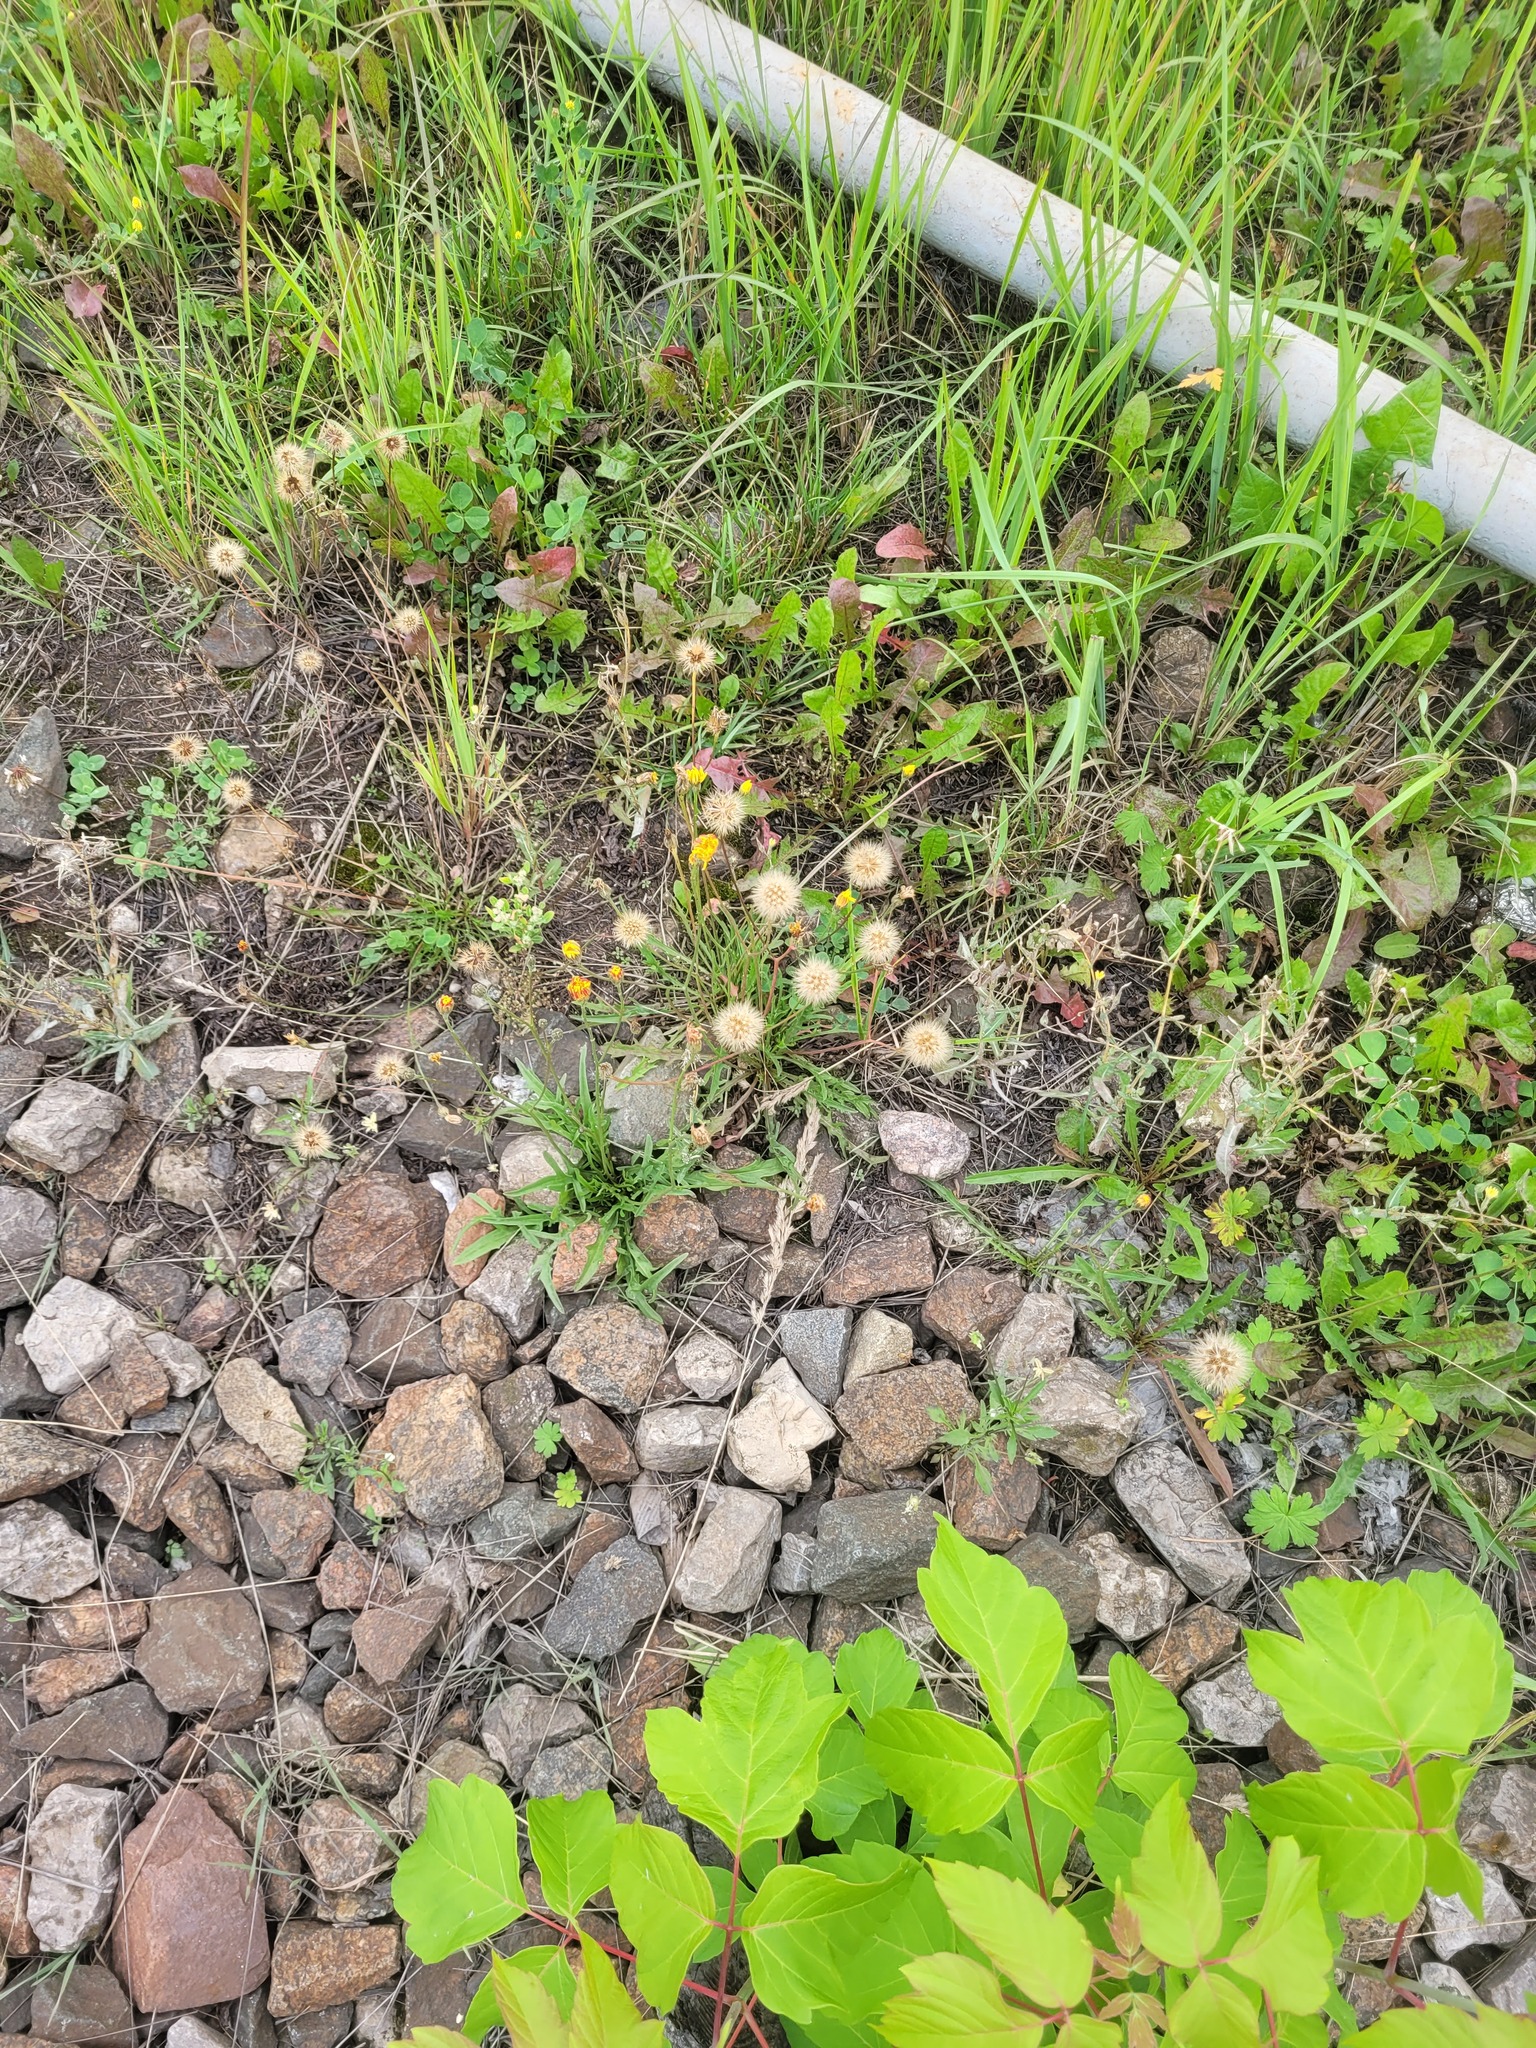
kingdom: Plantae
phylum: Tracheophyta
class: Magnoliopsida
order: Asterales
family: Asteraceae
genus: Scorzoneroides
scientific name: Scorzoneroides autumnalis
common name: Autumn hawkbit
